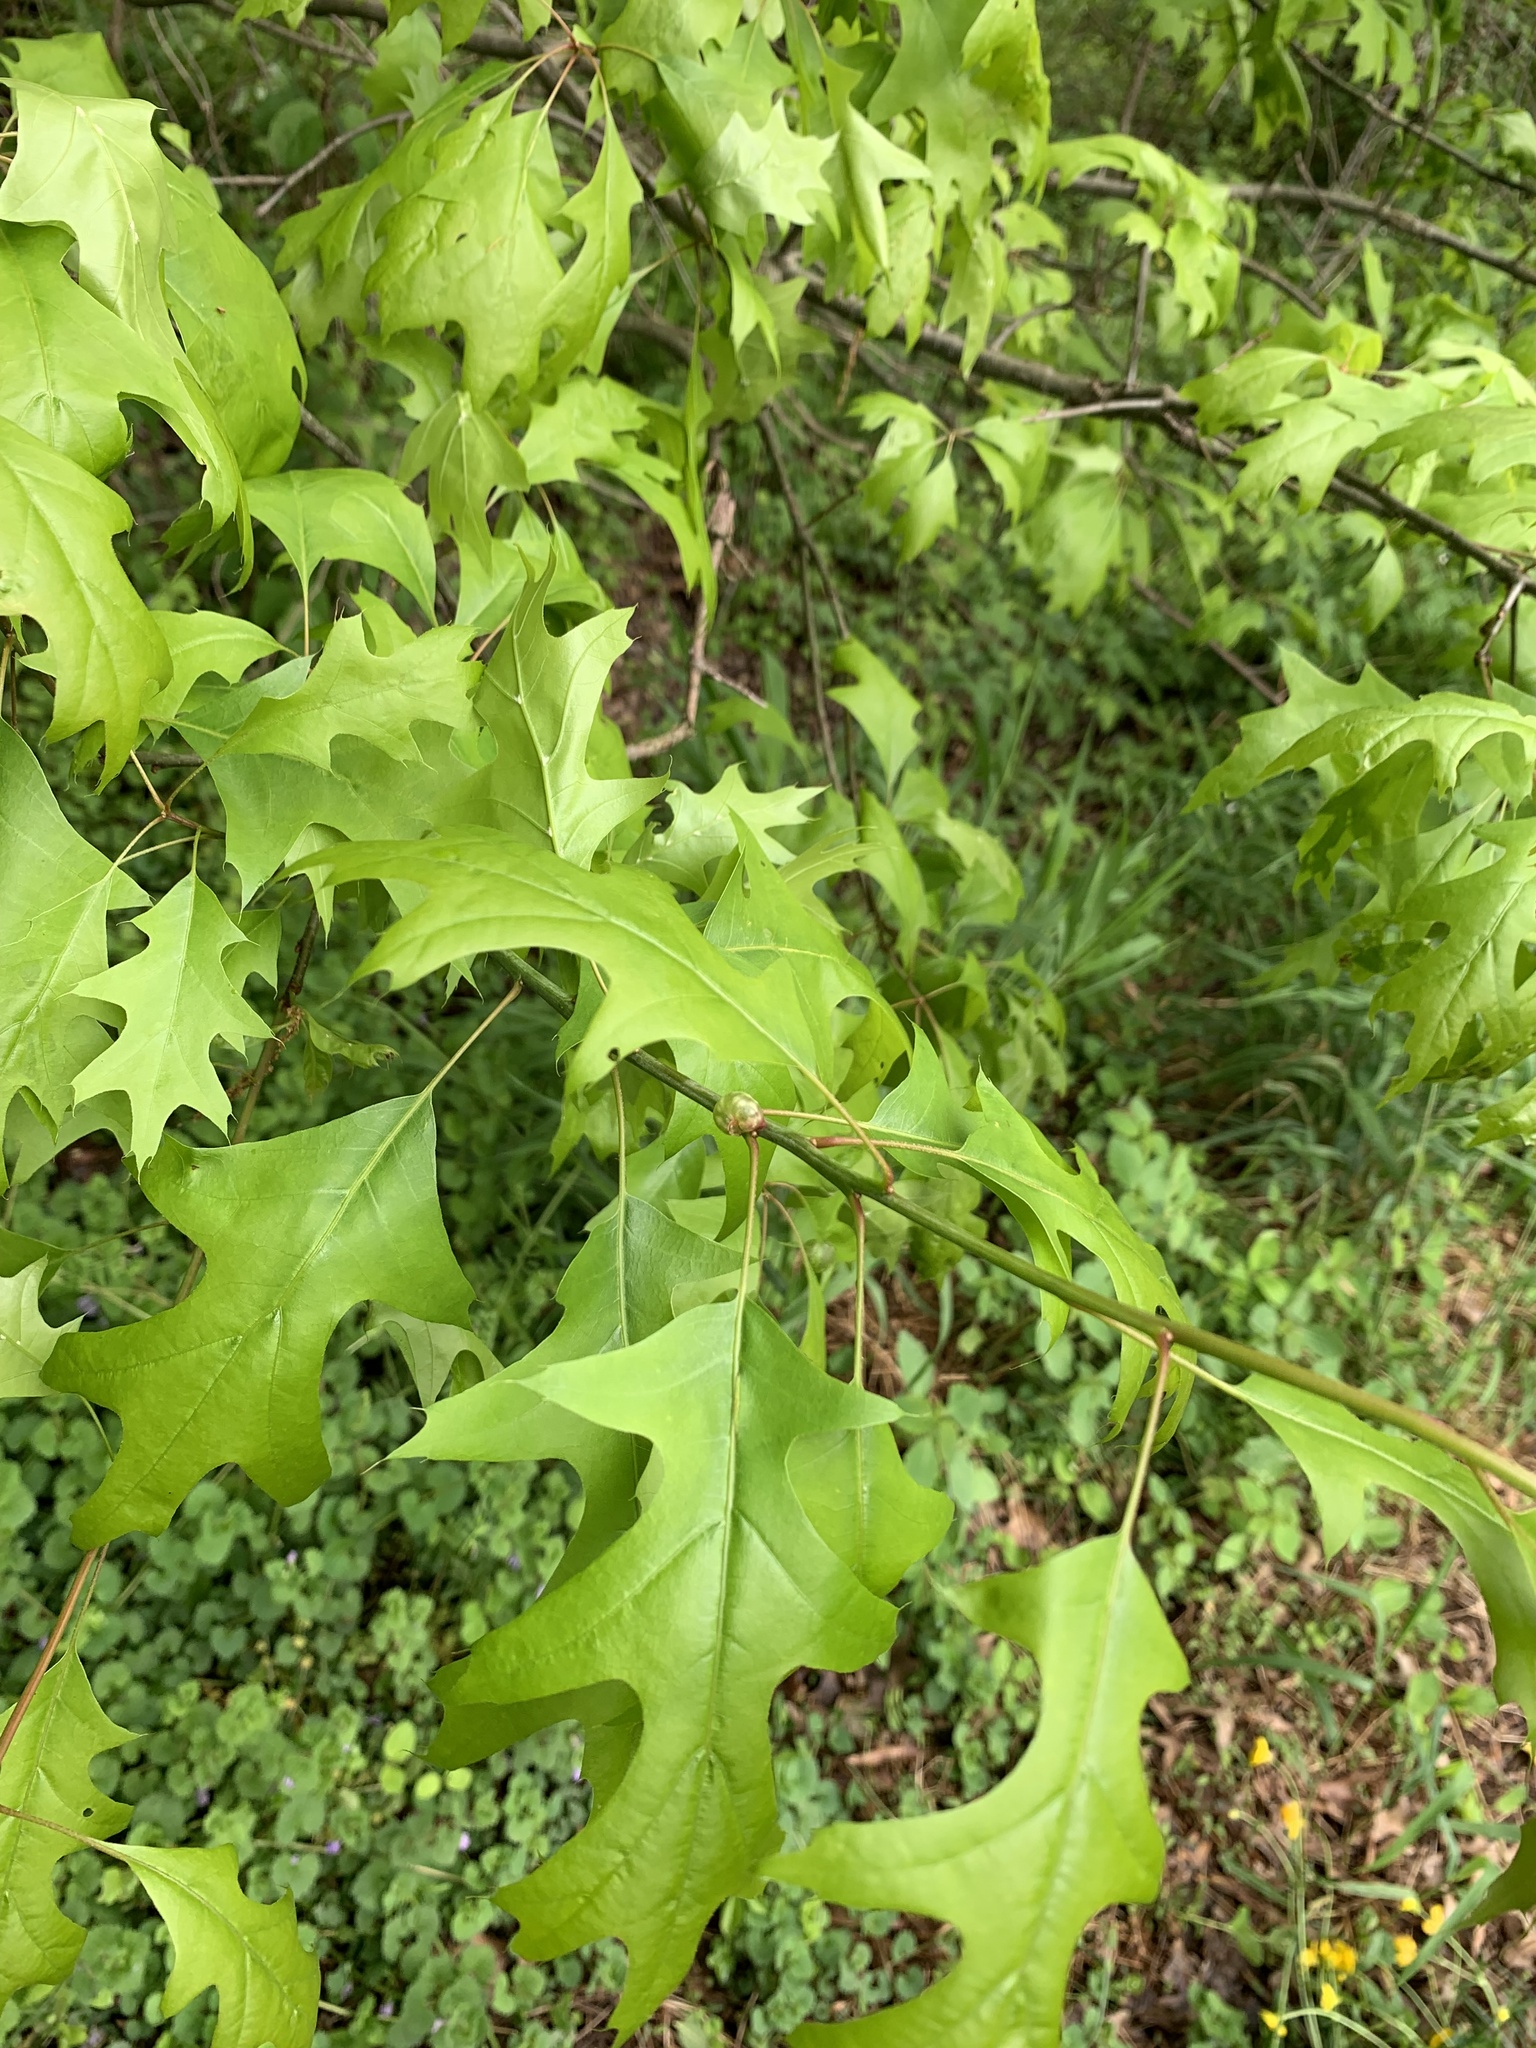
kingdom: Animalia
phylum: Arthropoda
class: Insecta
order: Hymenoptera
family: Cynipidae
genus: Dryocosmus
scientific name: Dryocosmus quercuspalustris
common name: Succulent oak gall wasp
